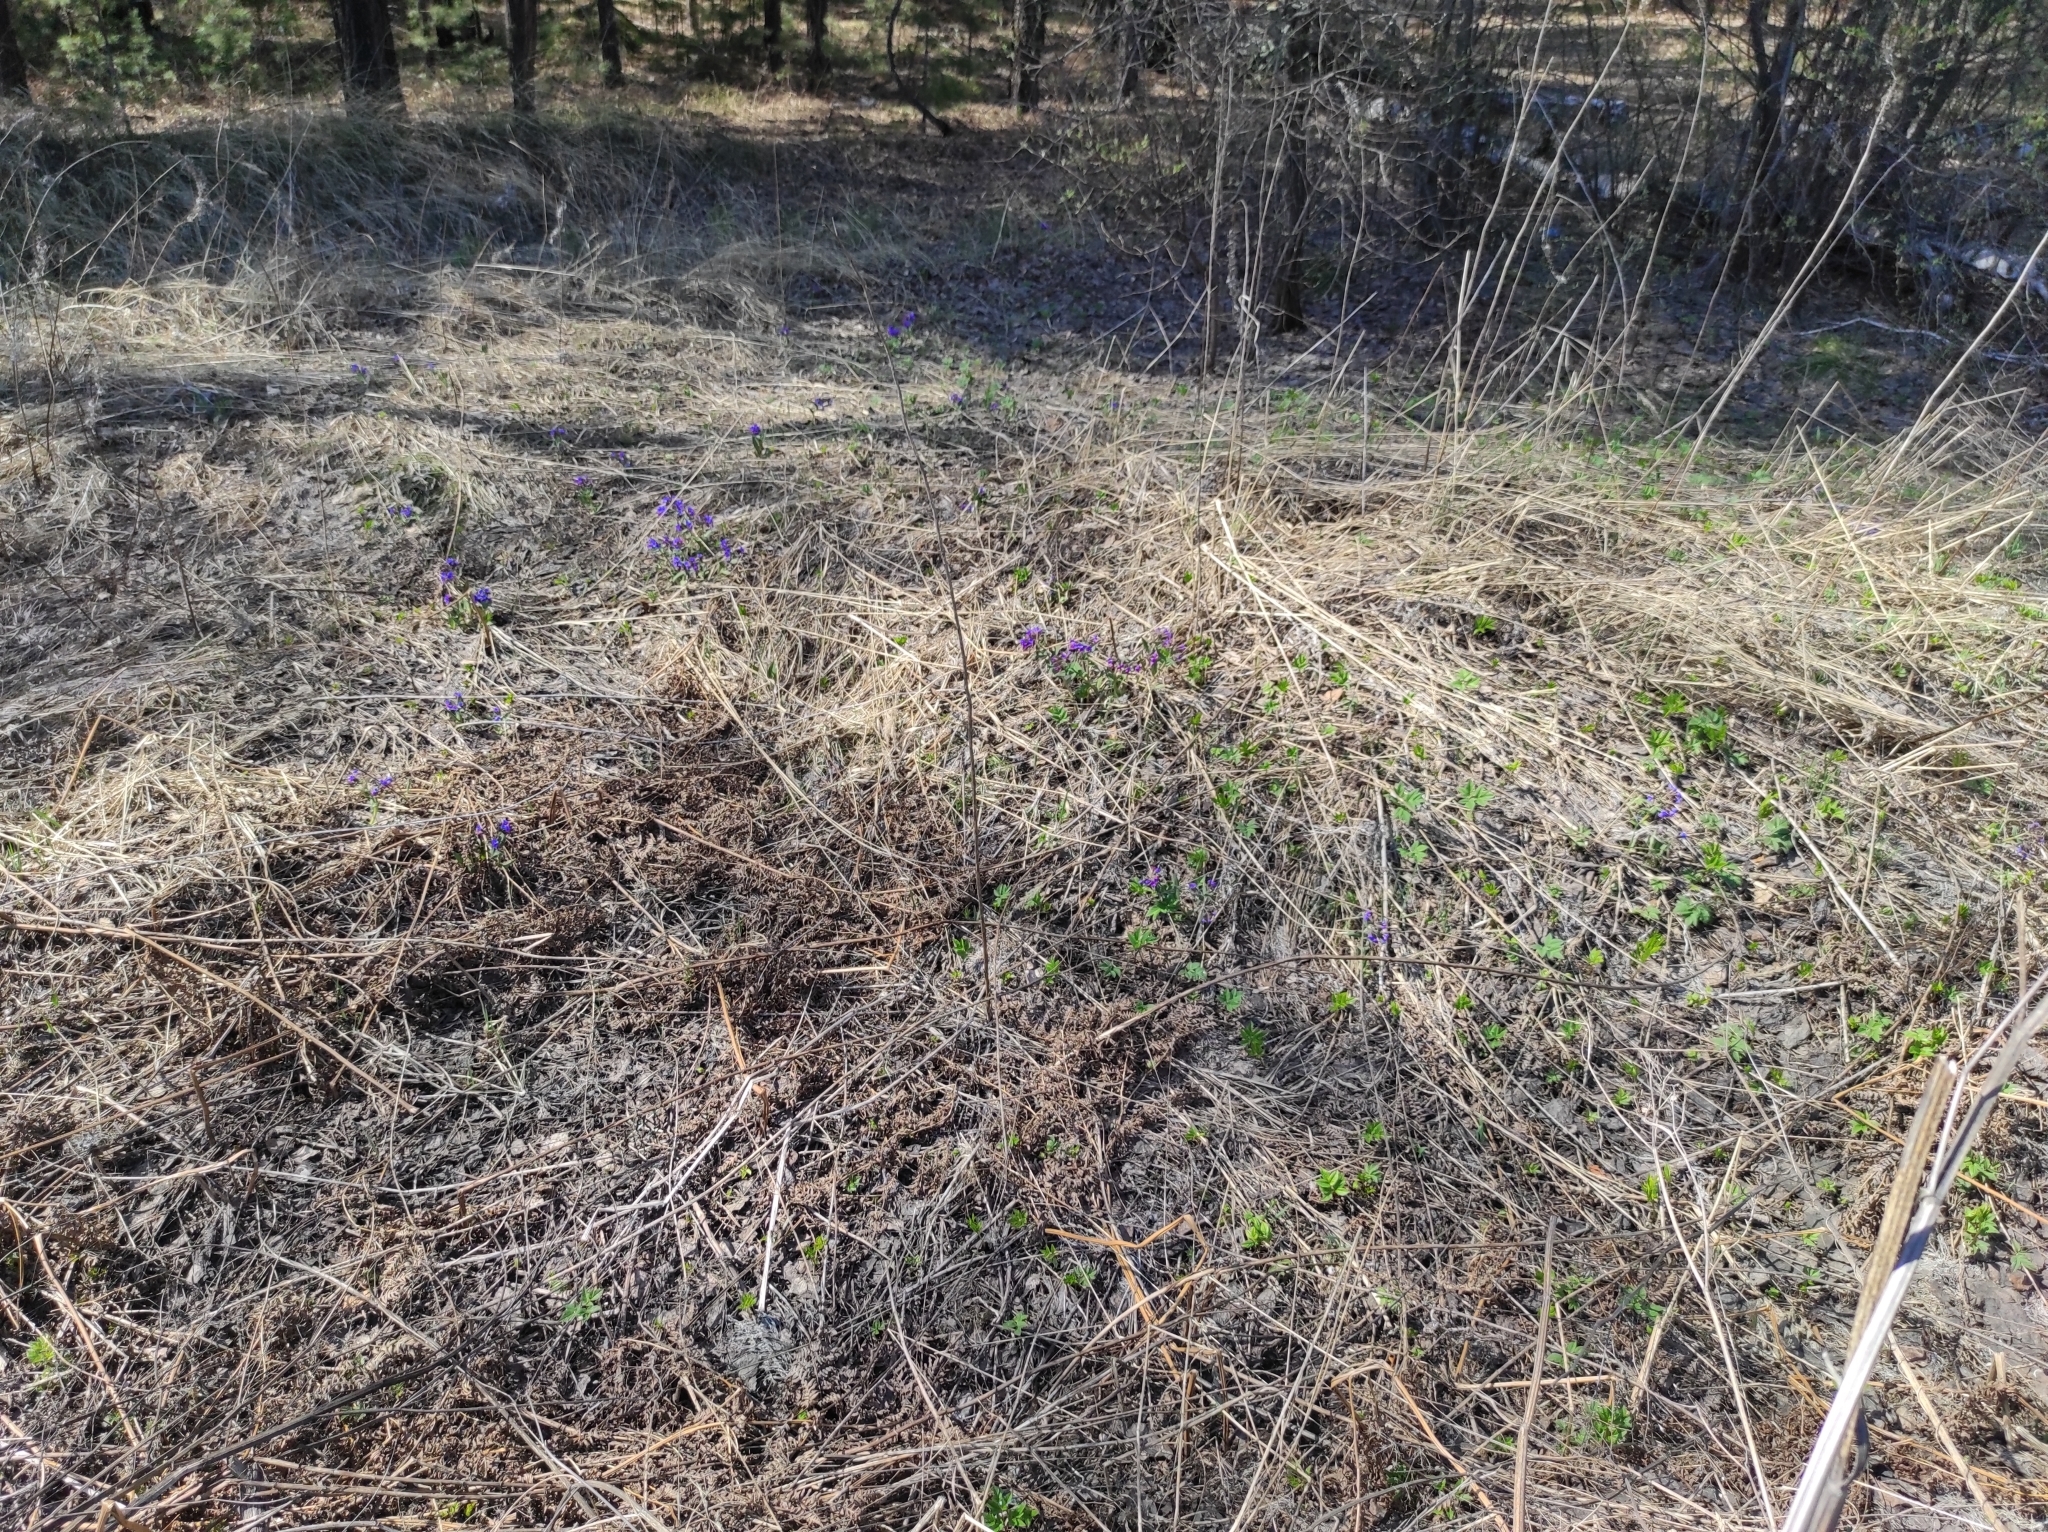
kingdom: Plantae
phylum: Tracheophyta
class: Magnoliopsida
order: Boraginales
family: Boraginaceae
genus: Pulmonaria
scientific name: Pulmonaria mollis
